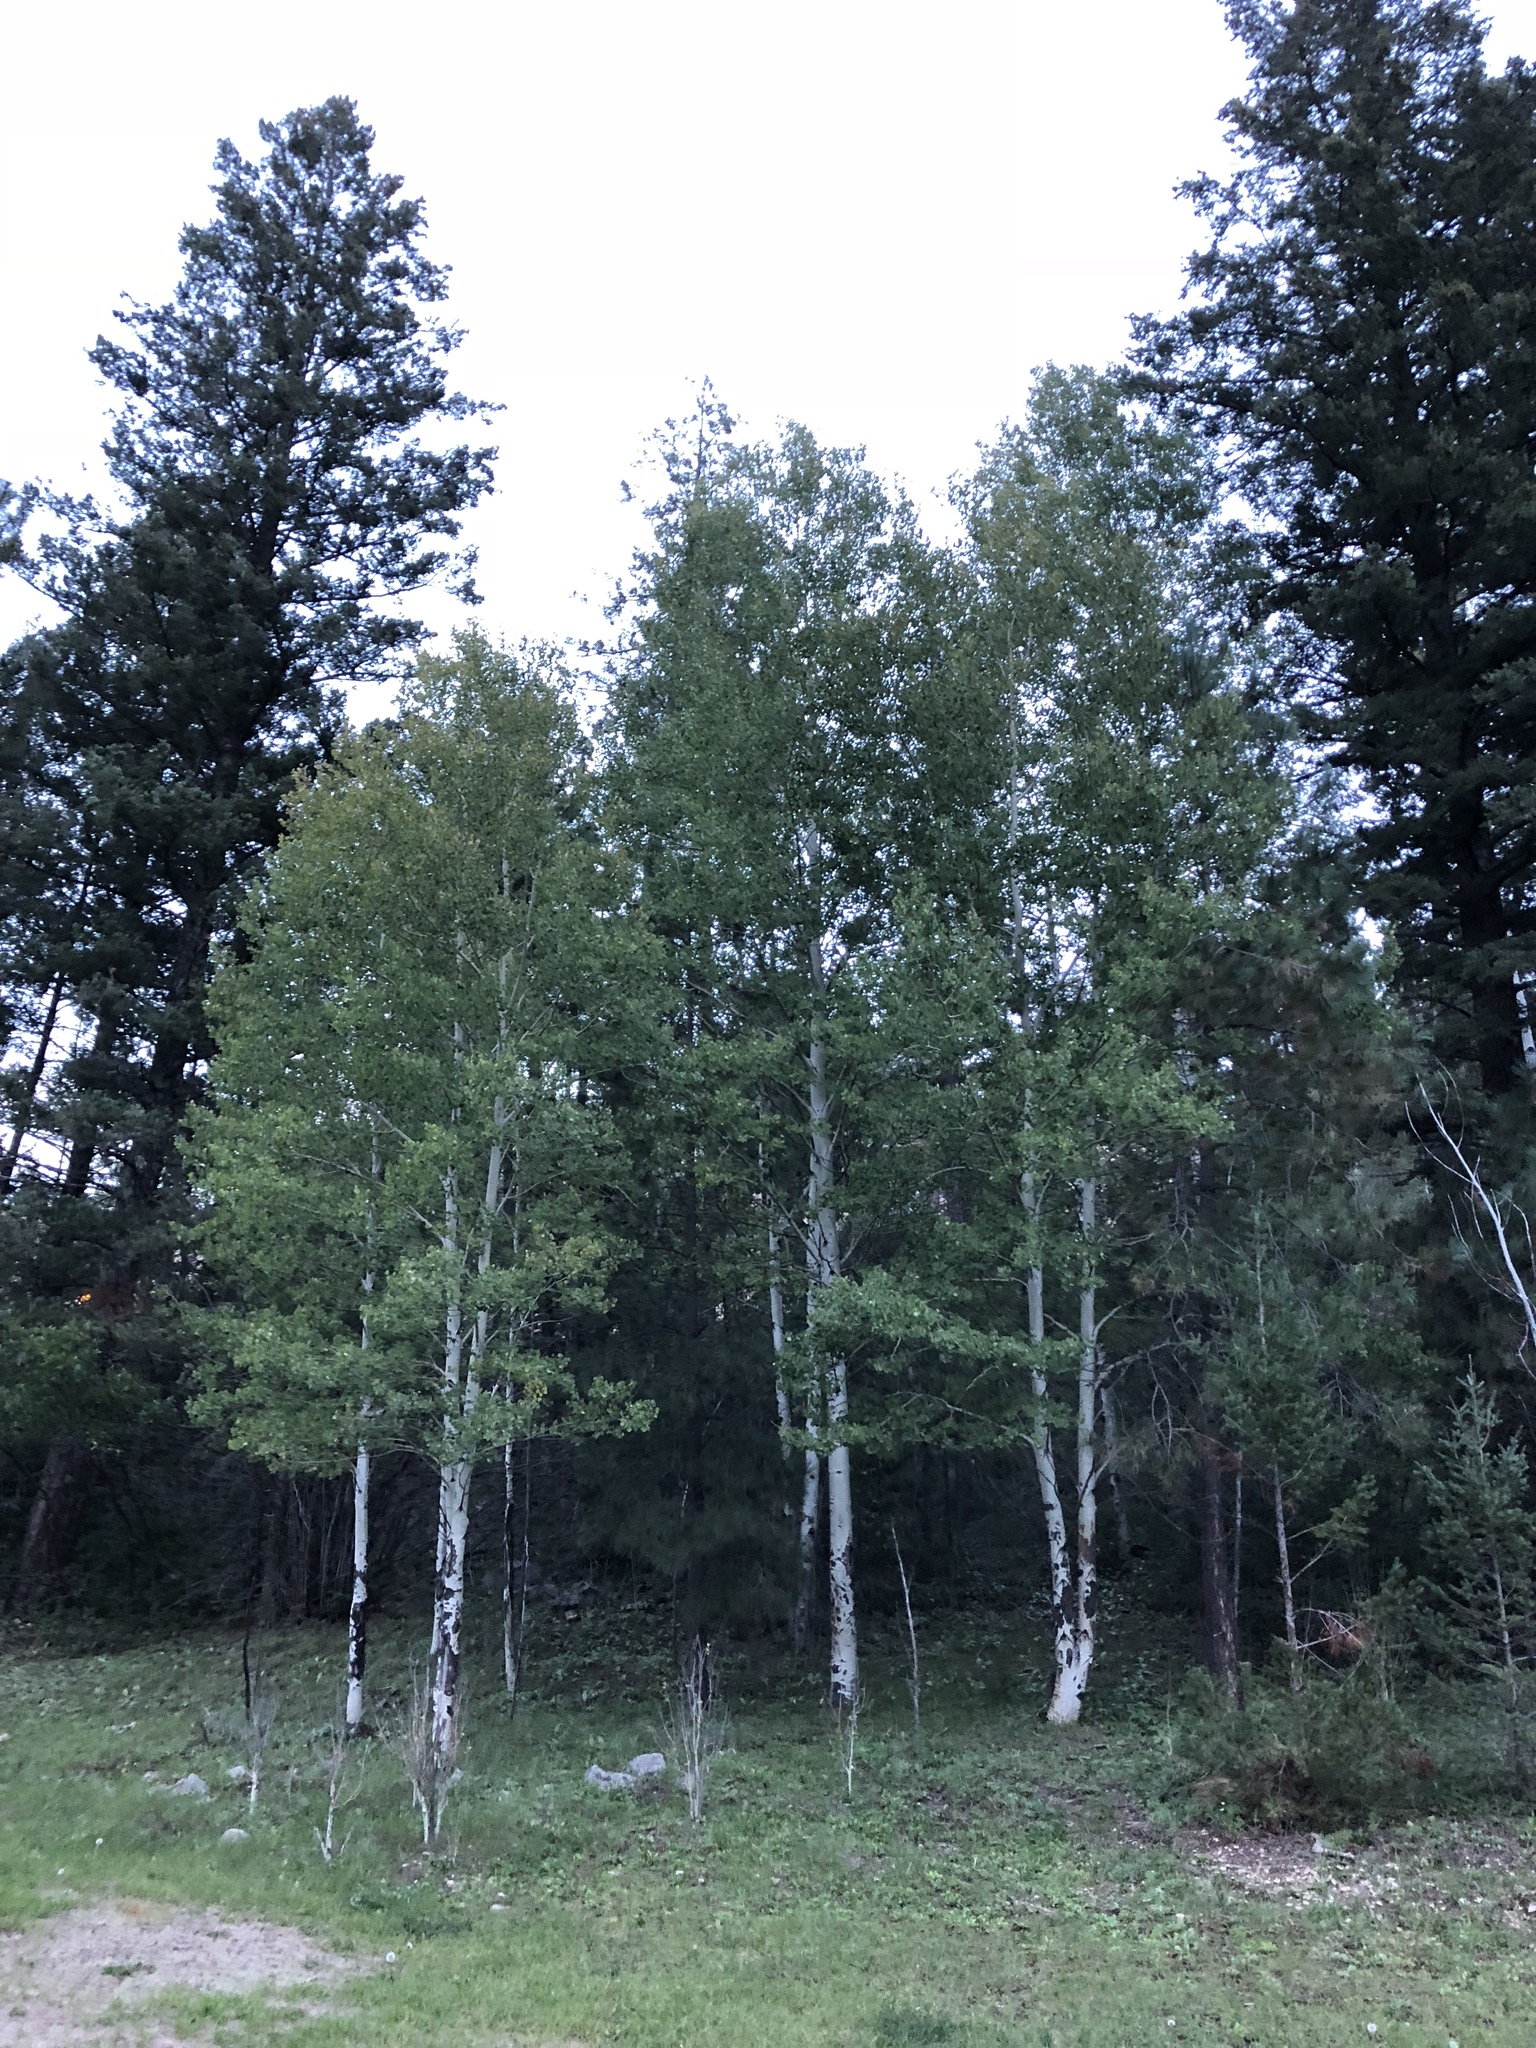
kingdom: Plantae
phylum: Tracheophyta
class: Magnoliopsida
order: Malpighiales
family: Salicaceae
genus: Populus
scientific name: Populus tremuloides
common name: Quaking aspen
